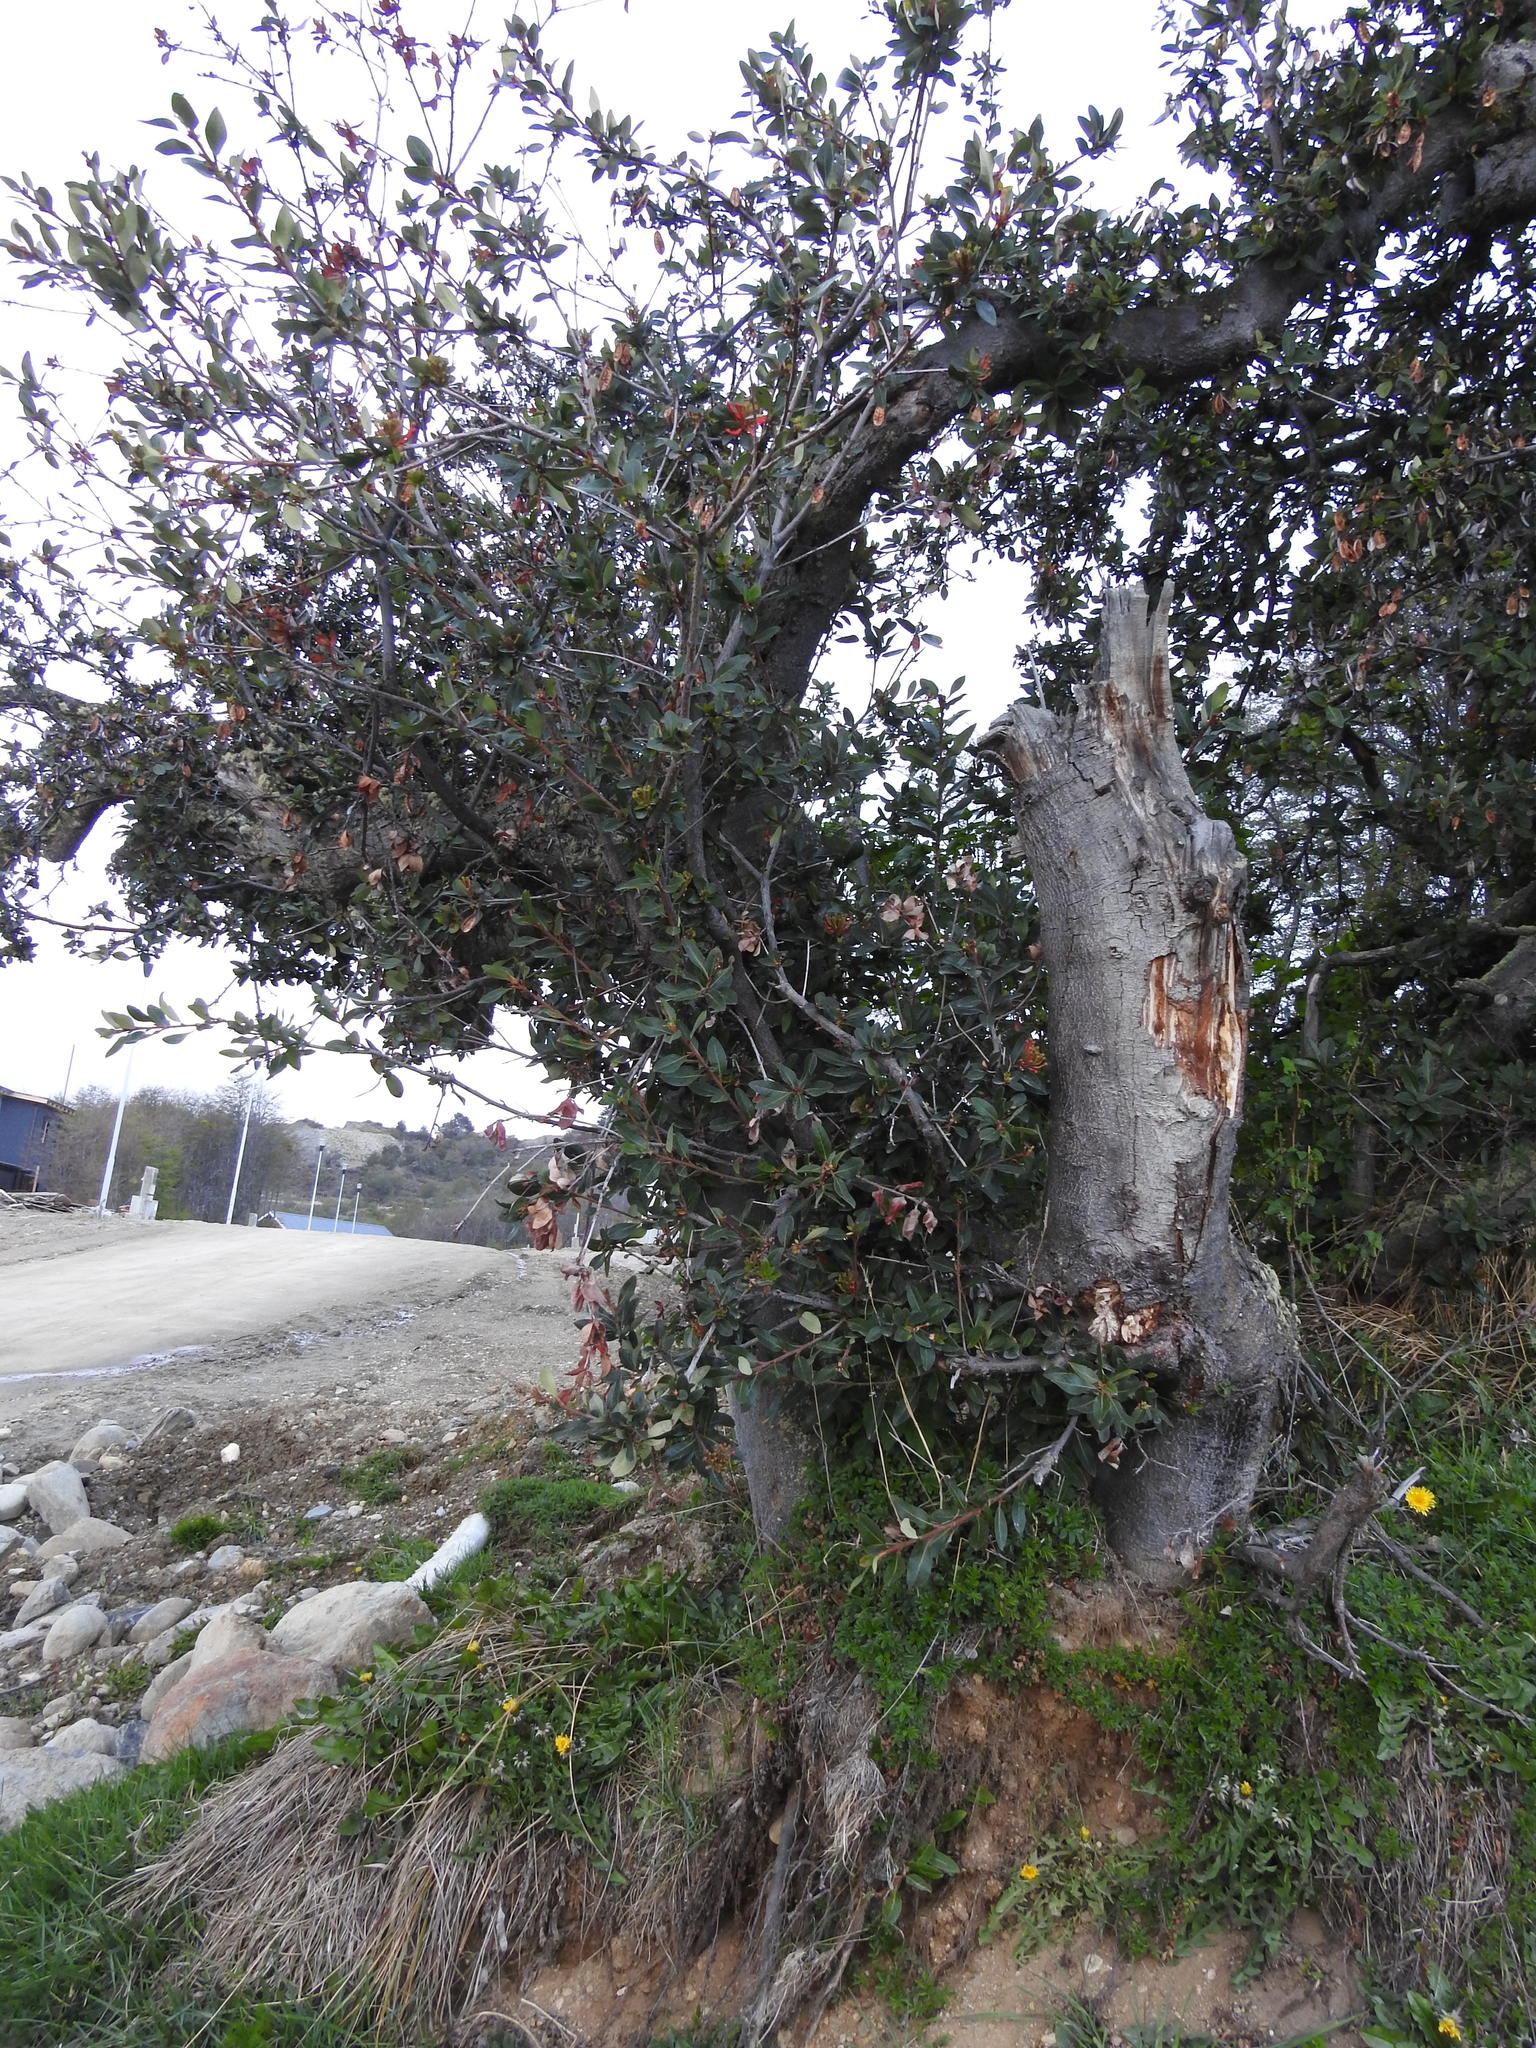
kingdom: Plantae
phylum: Tracheophyta
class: Magnoliopsida
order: Proteales
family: Proteaceae
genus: Embothrium
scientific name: Embothrium coccineum
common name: Chilean firebush
